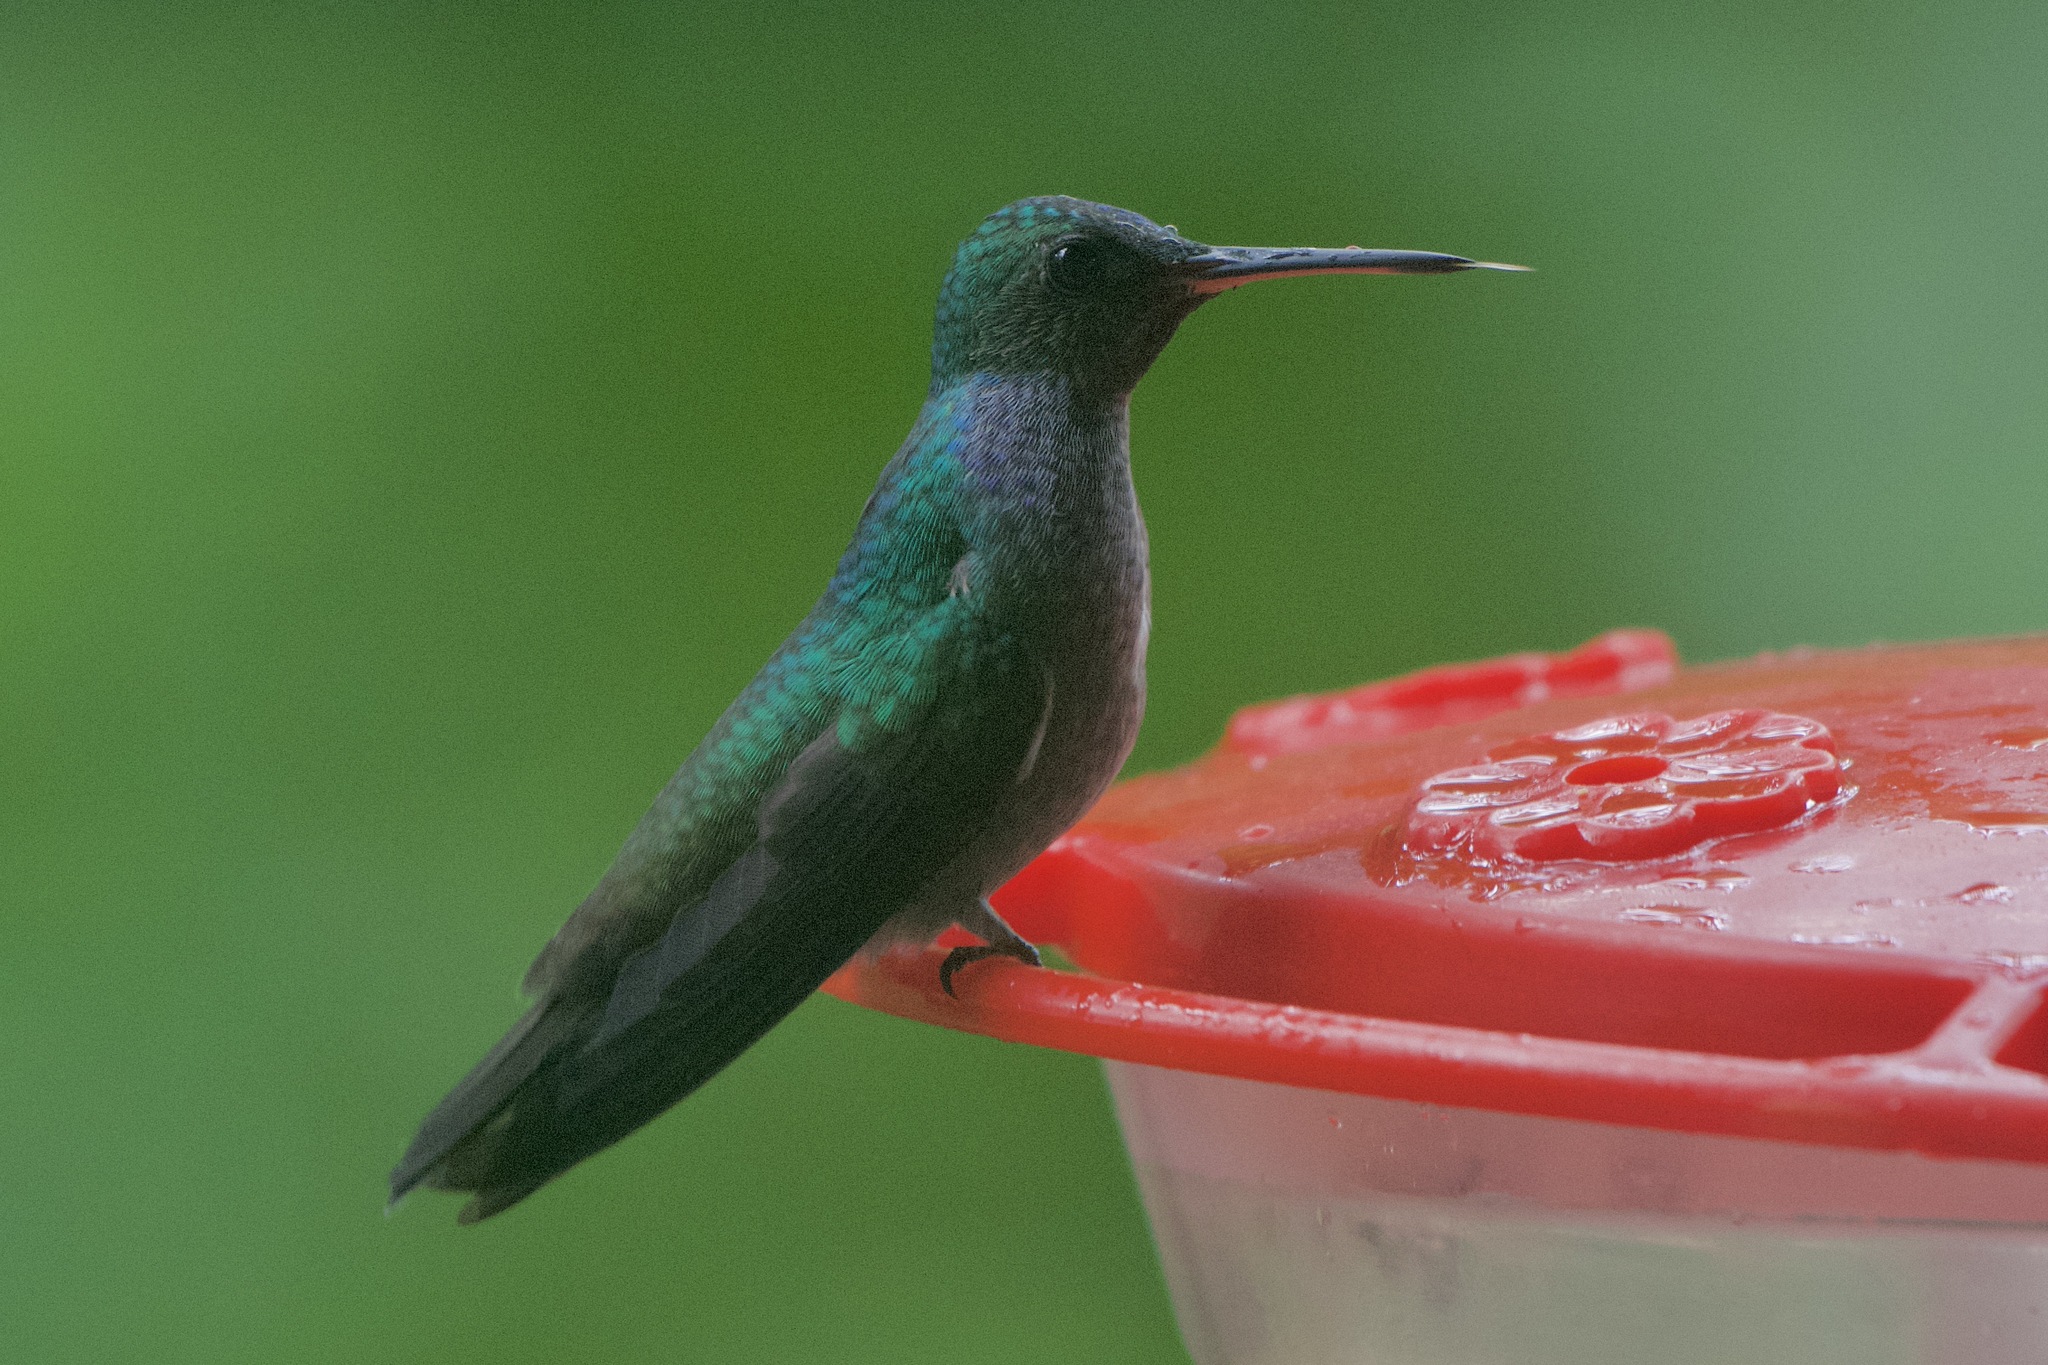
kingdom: Animalia
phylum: Chordata
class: Aves
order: Apodiformes
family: Trochilidae
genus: Polyerata
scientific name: Polyerata amabilis
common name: Blue-chested hummingbird
